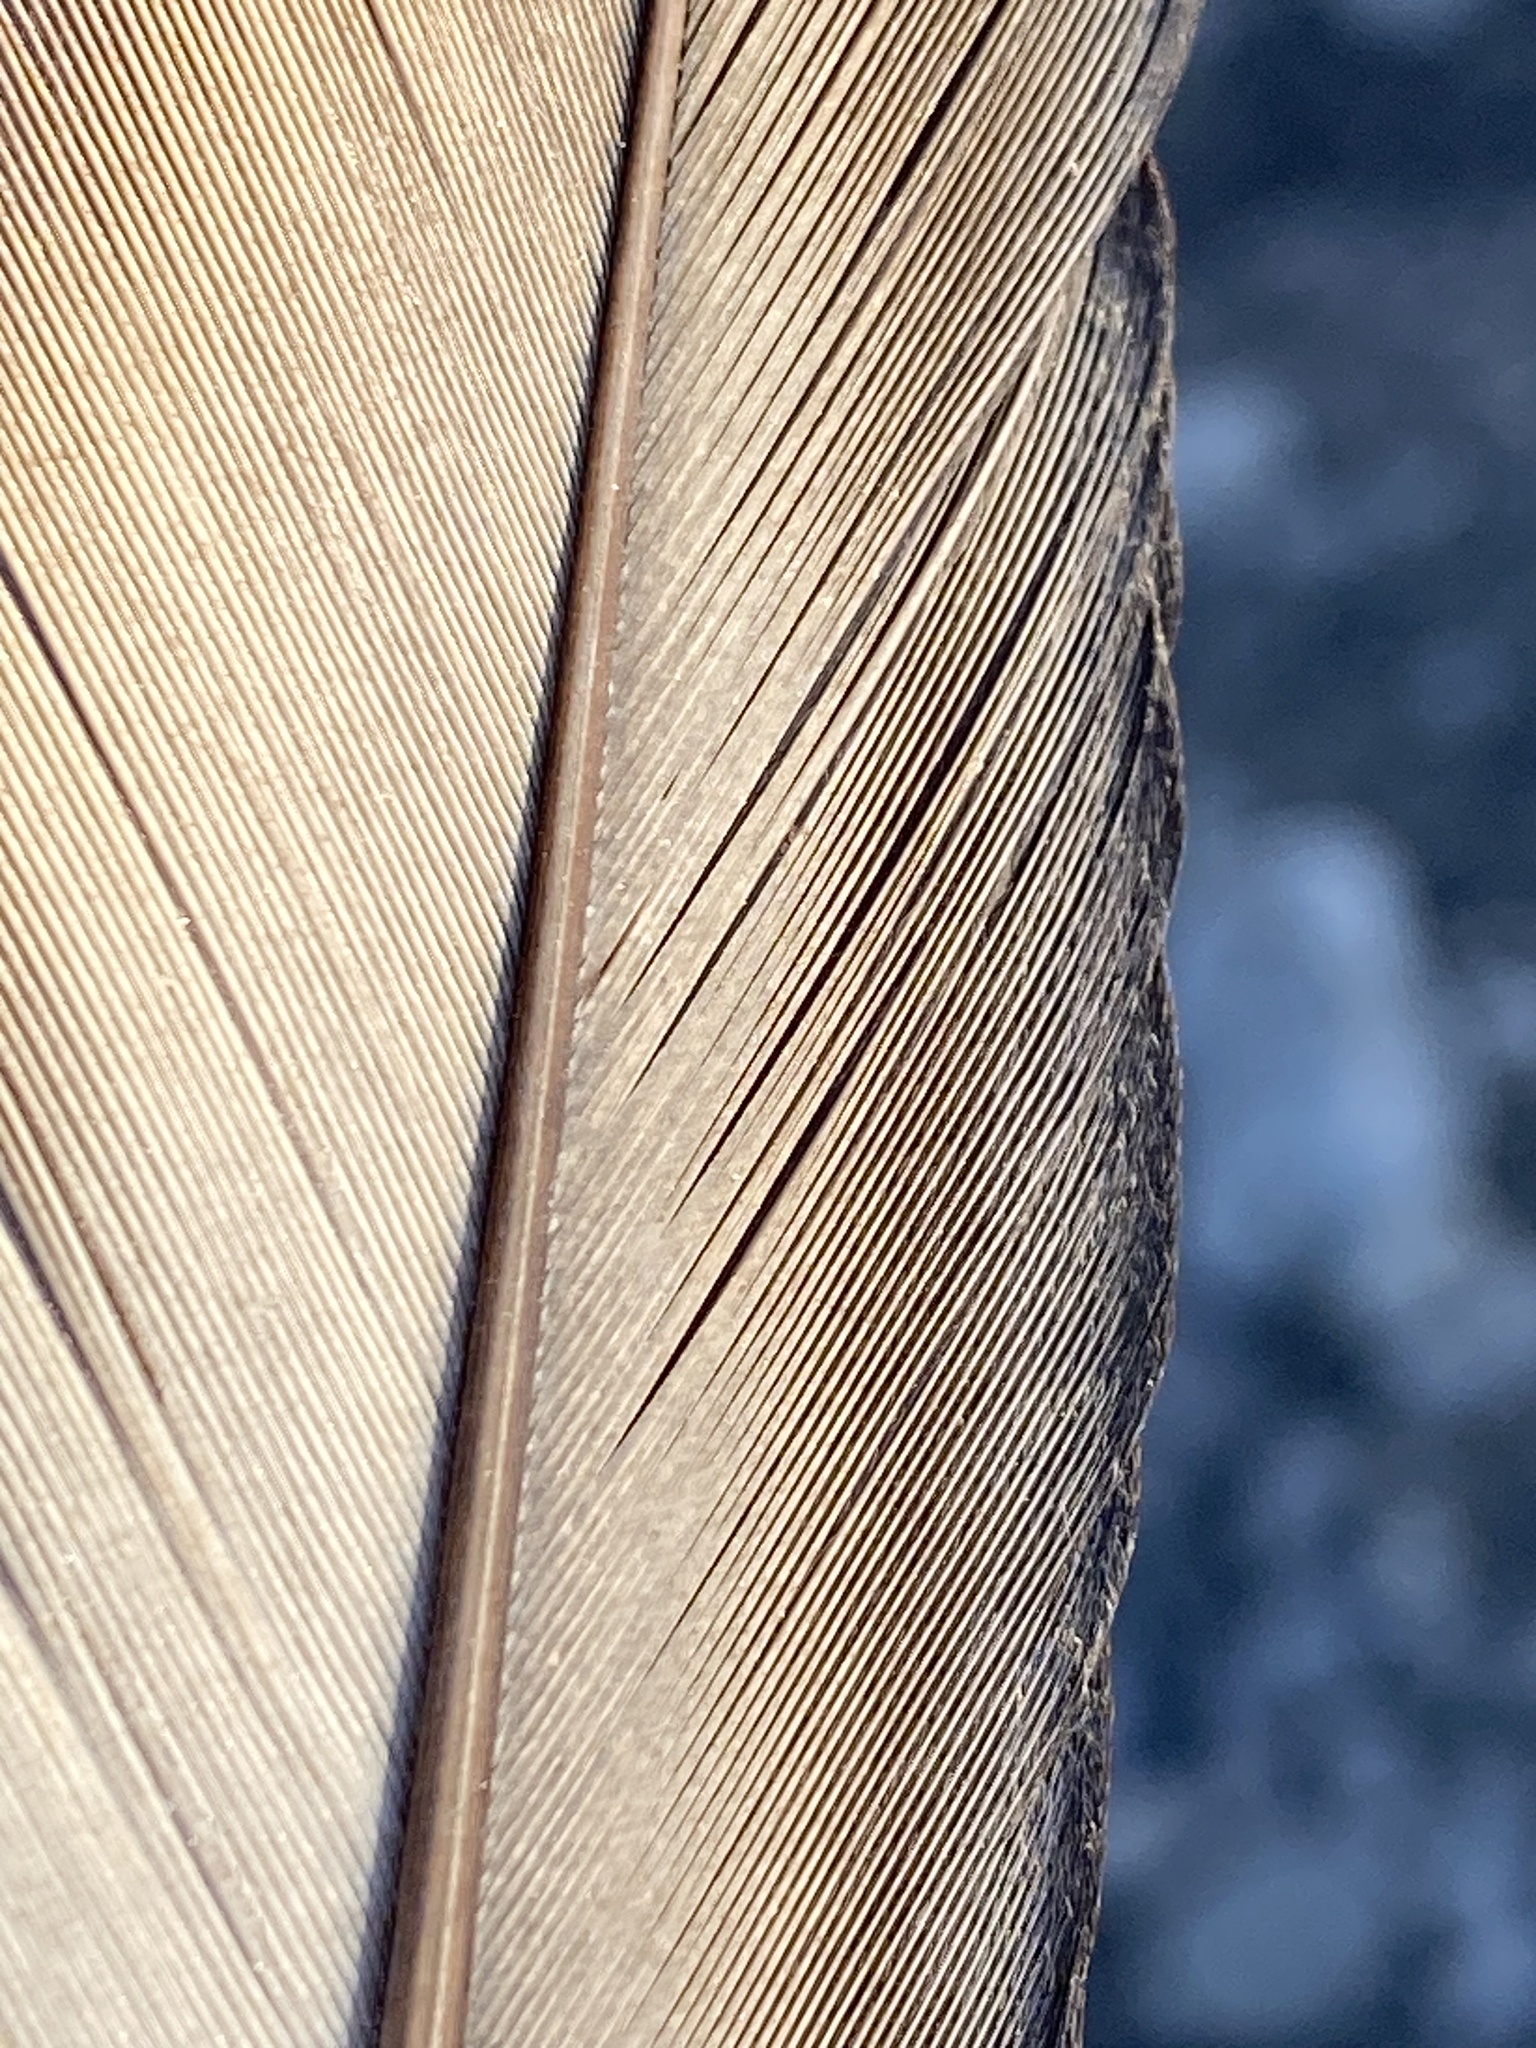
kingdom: Animalia
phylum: Chordata
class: Aves
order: Charadriiformes
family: Laridae
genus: Larus
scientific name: Larus dominicanus
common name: Kelp gull
